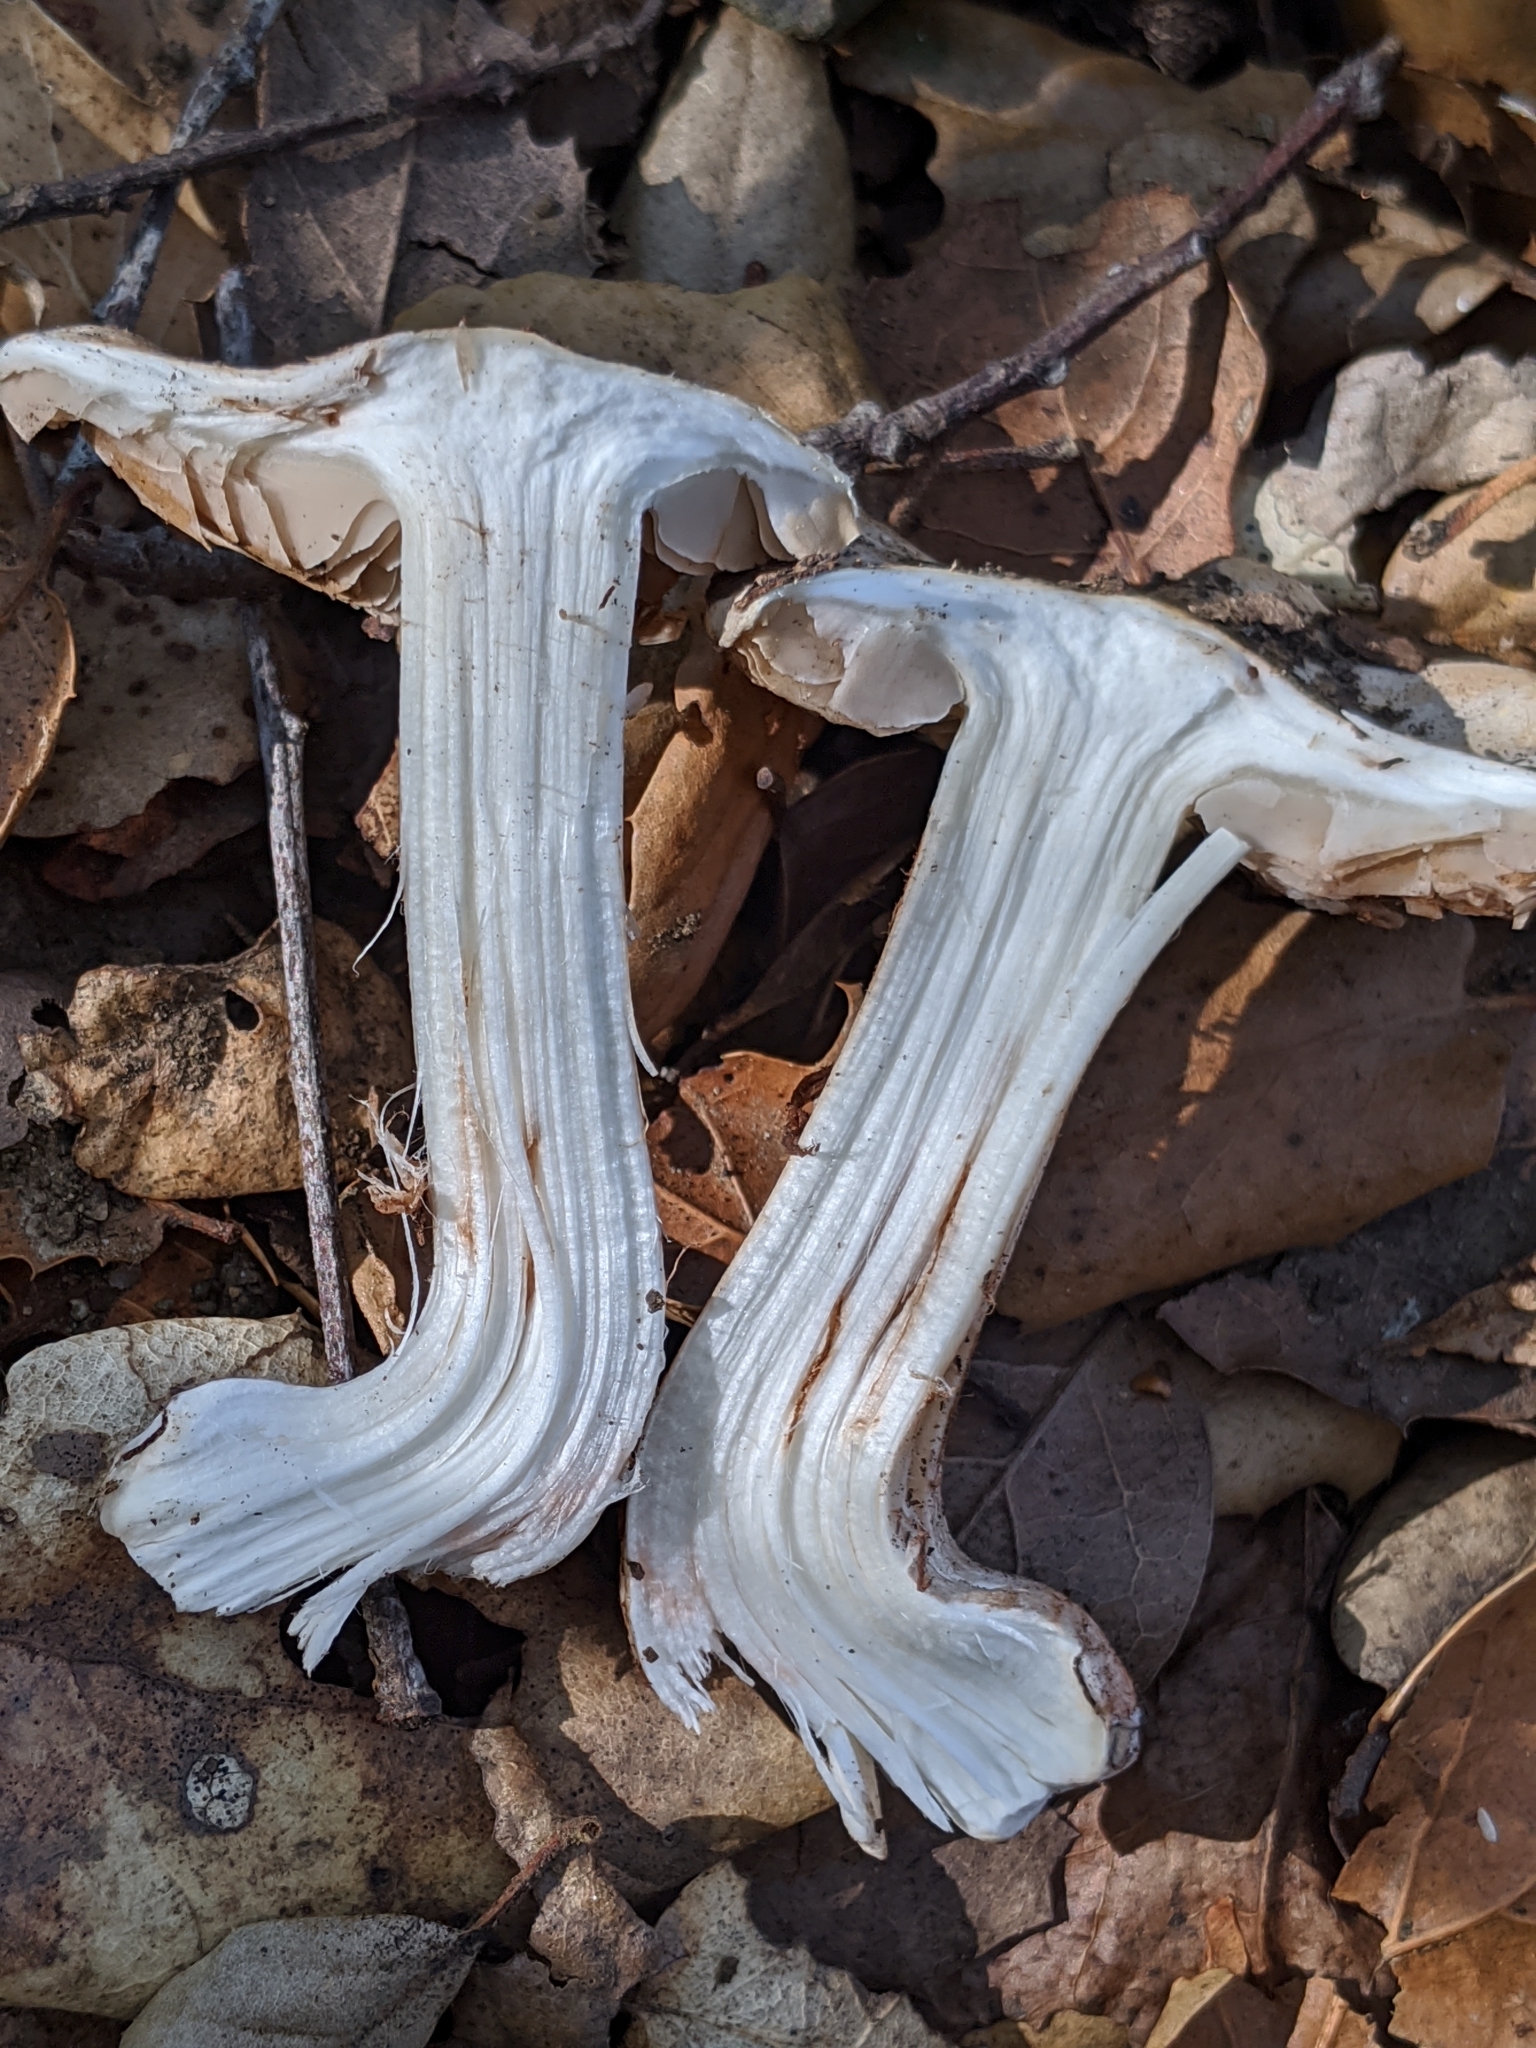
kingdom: Fungi
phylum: Basidiomycota
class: Agaricomycetes
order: Agaricales
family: Inocybaceae
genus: Inocybe
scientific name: Inocybe fraudans
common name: Pear fibrecap
